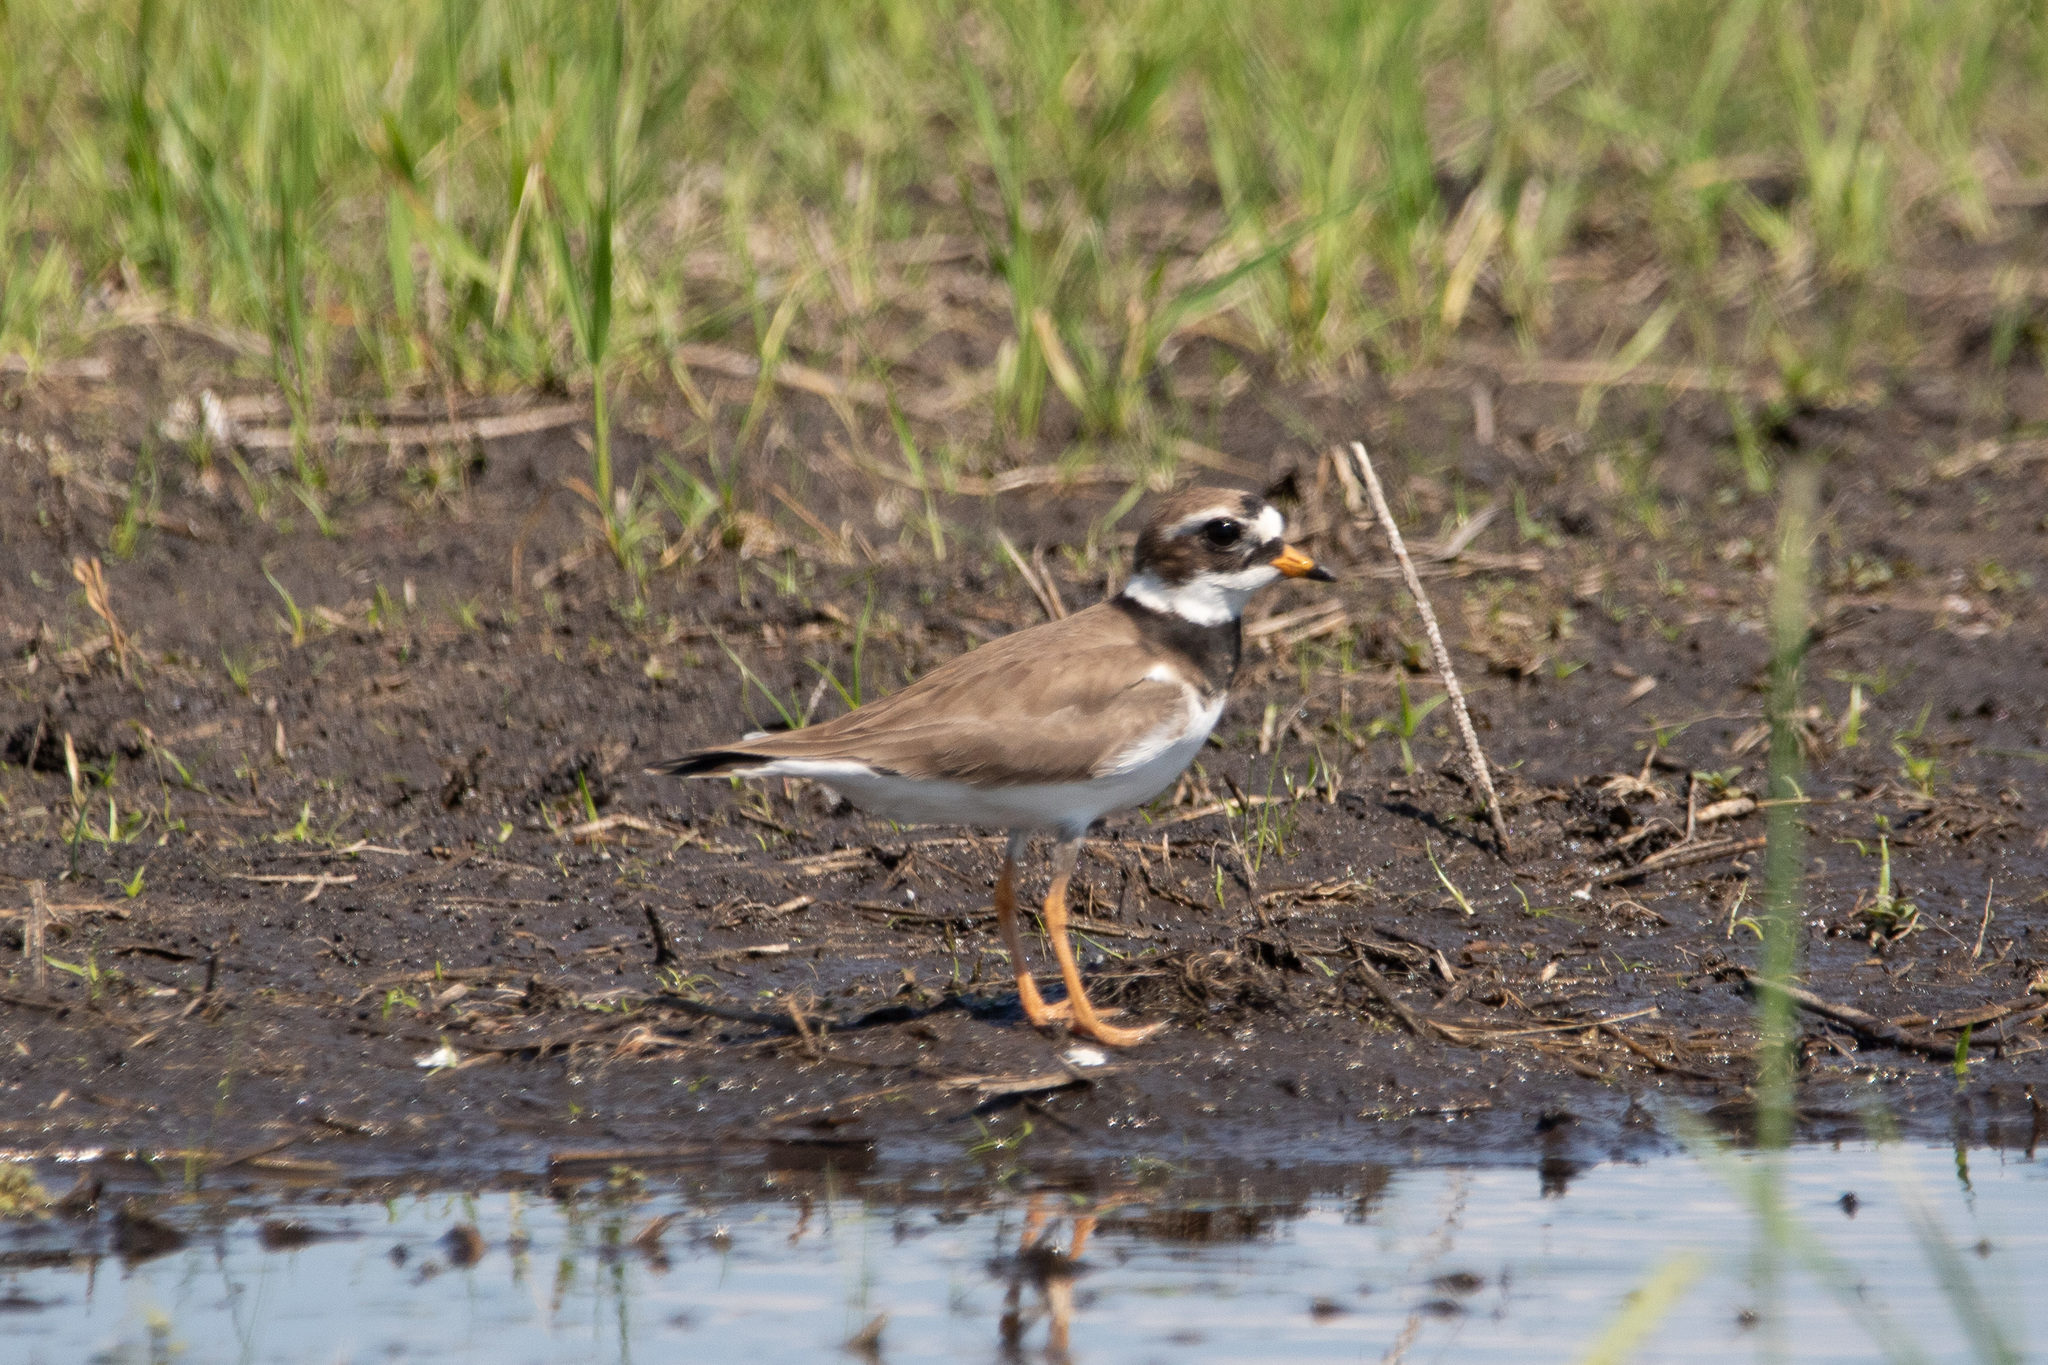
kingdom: Animalia
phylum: Chordata
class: Aves
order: Charadriiformes
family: Charadriidae
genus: Charadrius
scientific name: Charadrius hiaticula
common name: Common ringed plover
